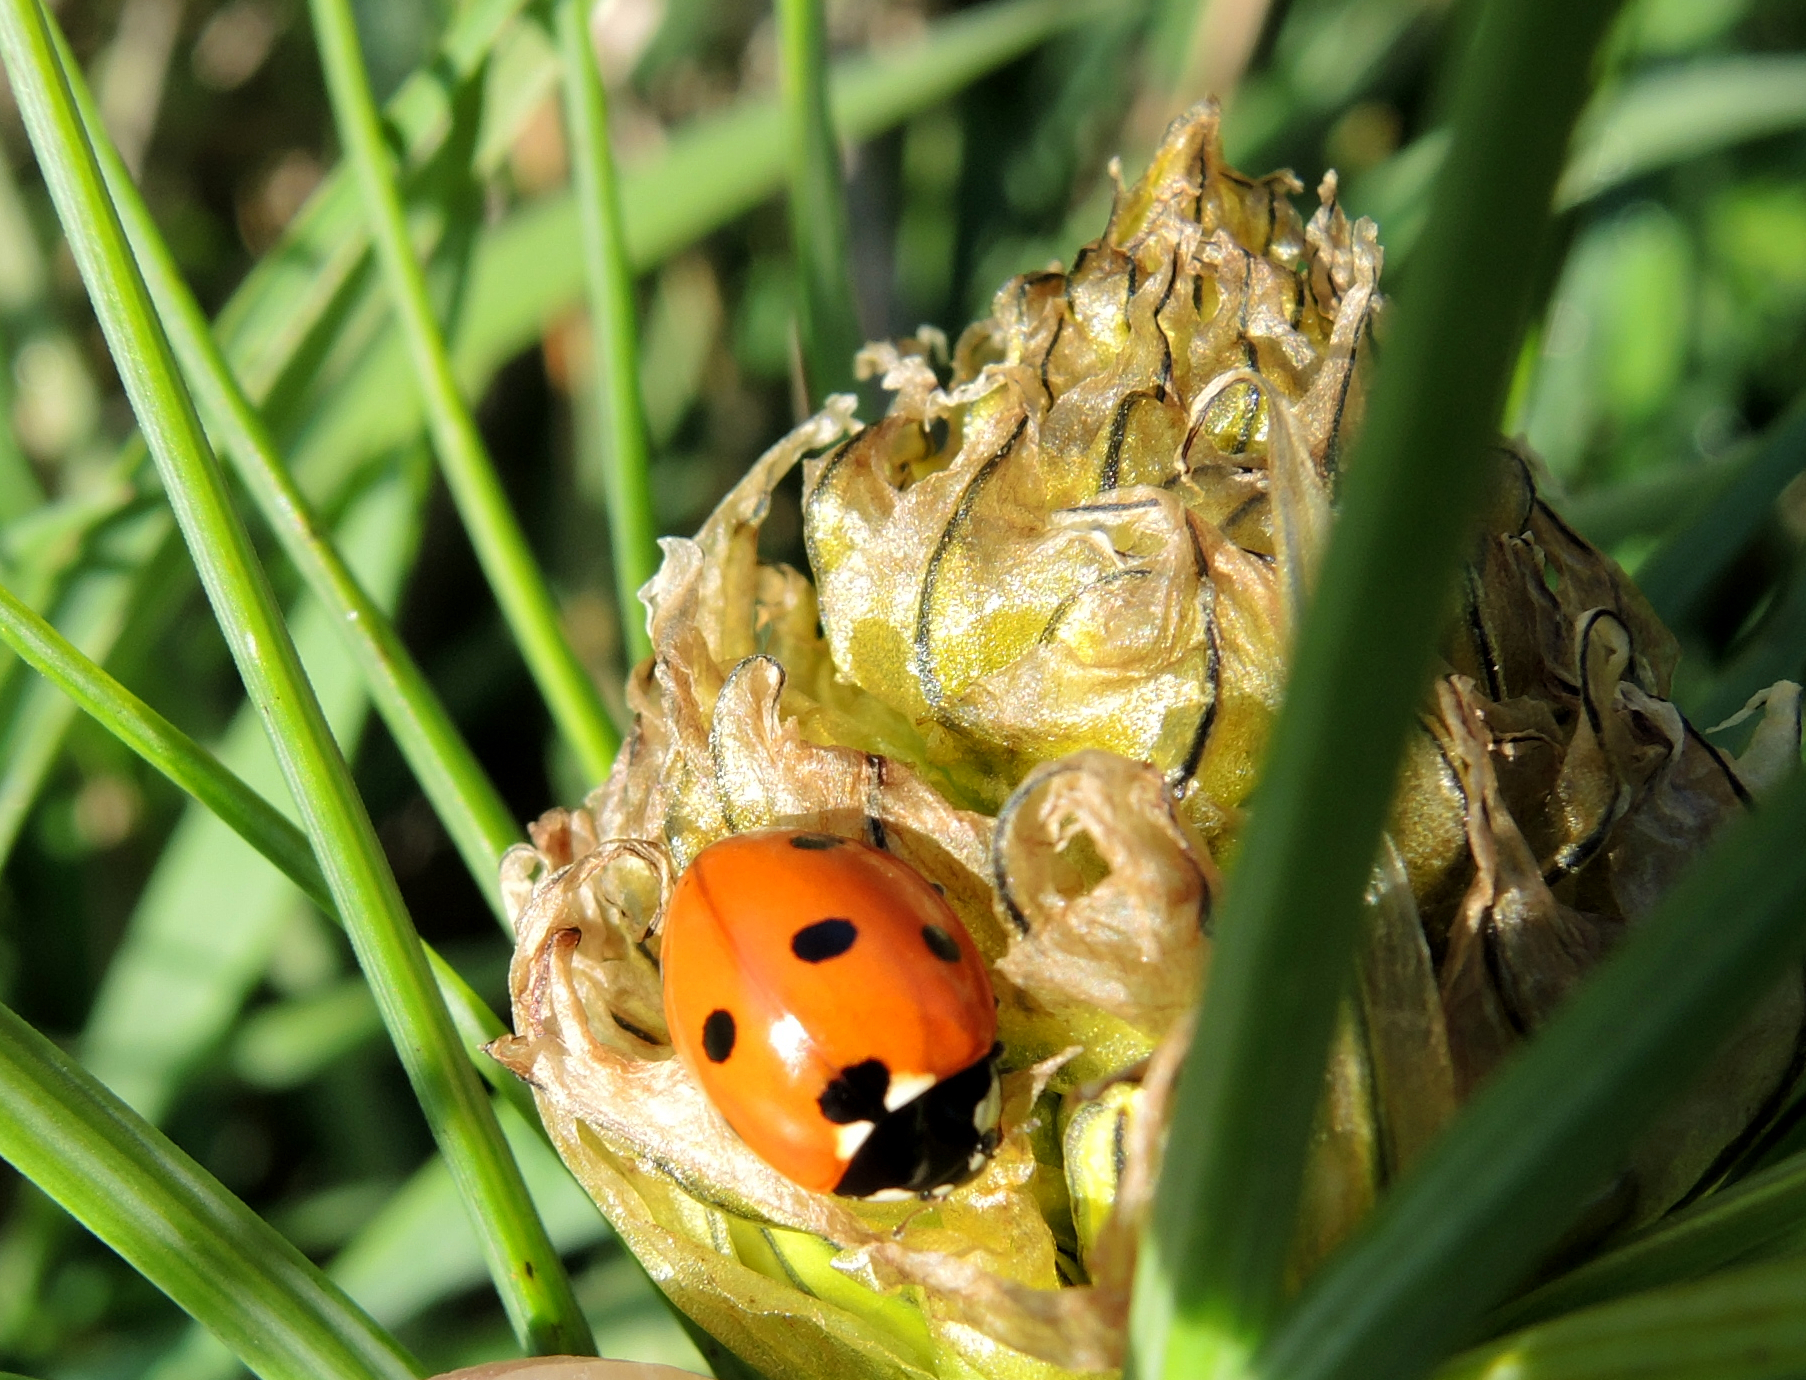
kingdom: Animalia
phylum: Arthropoda
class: Insecta
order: Coleoptera
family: Coccinellidae
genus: Coccinella
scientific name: Coccinella septempunctata
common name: Sevenspotted lady beetle
